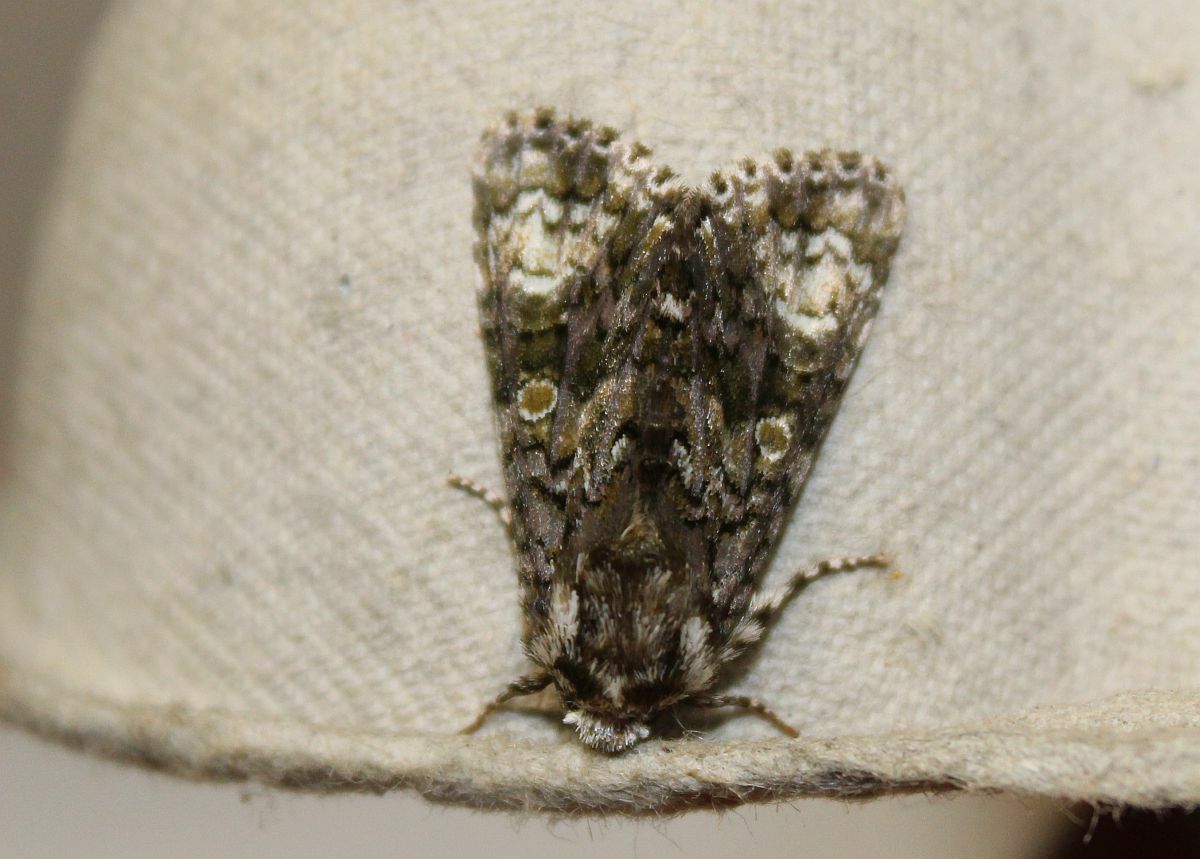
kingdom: Animalia
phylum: Arthropoda
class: Insecta
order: Lepidoptera
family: Noctuidae
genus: Craniophora
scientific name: Craniophora ligustri
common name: Coronet
